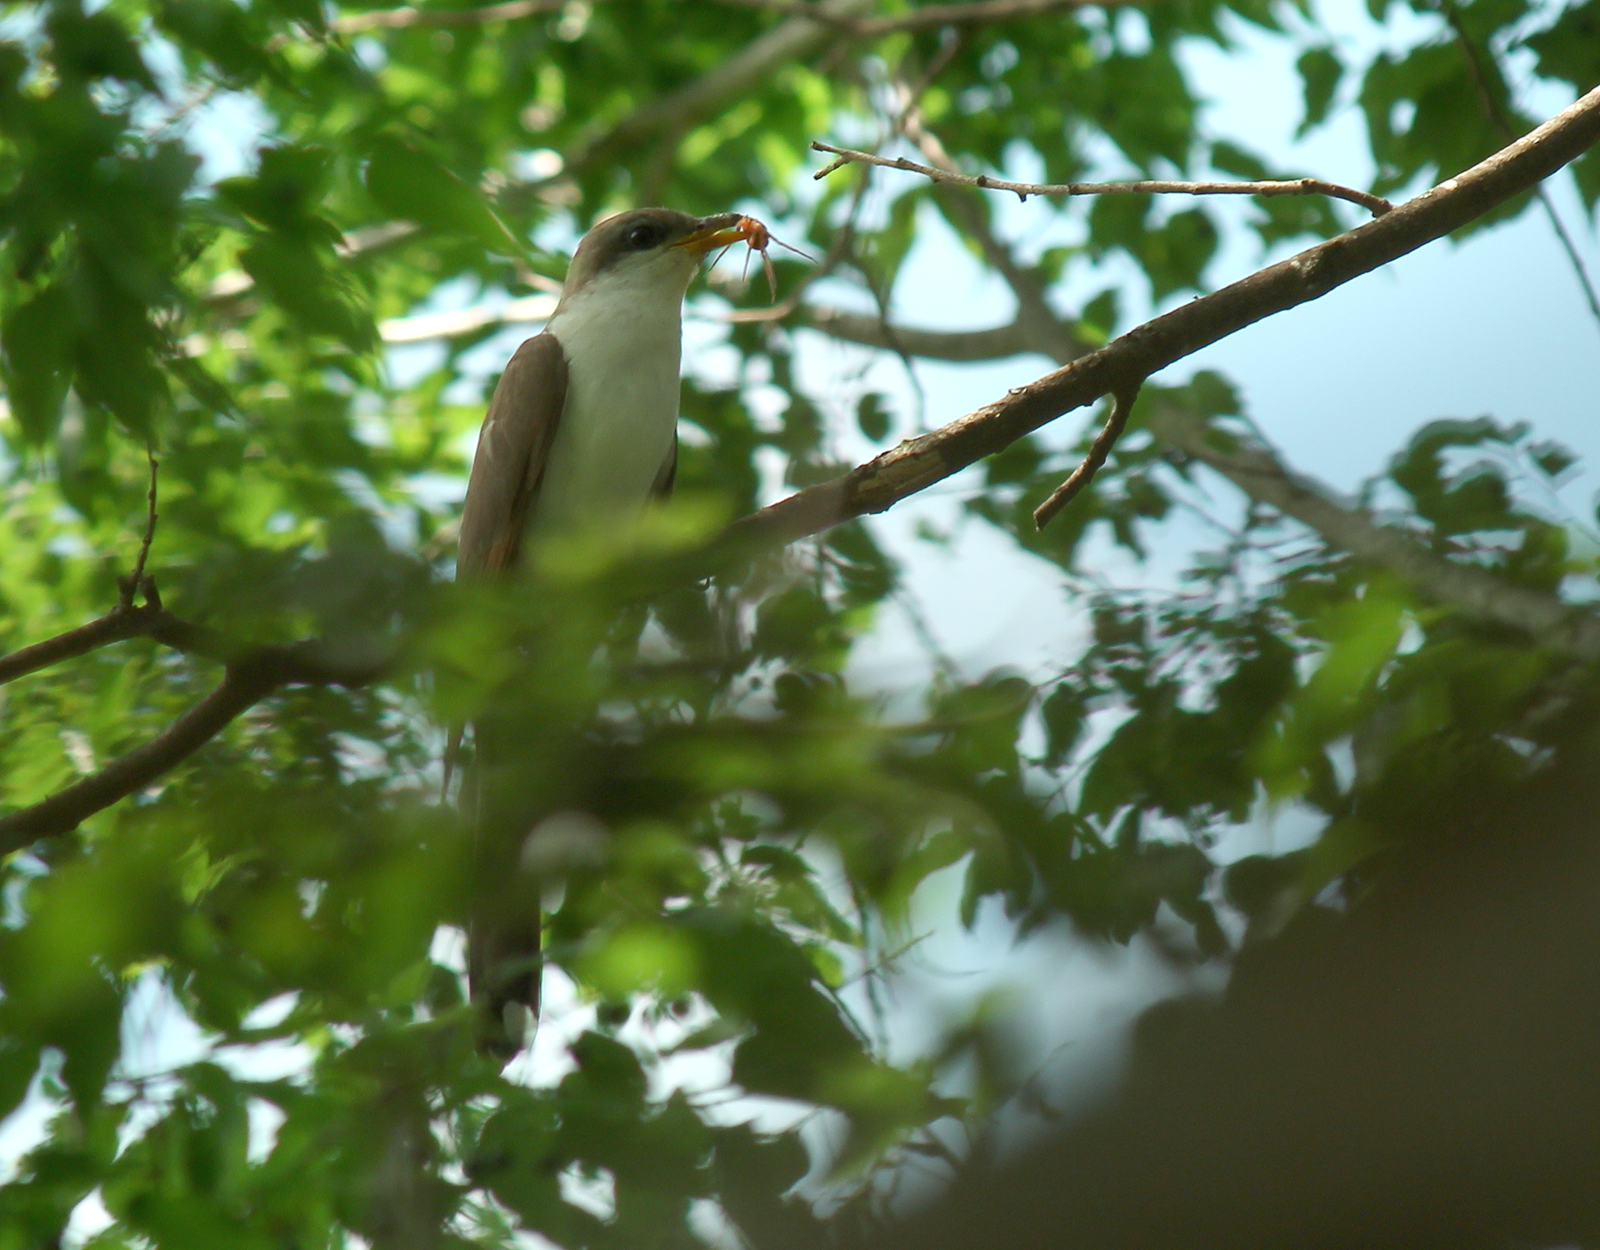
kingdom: Animalia
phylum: Chordata
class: Aves
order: Cuculiformes
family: Cuculidae
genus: Coccyzus
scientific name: Coccyzus americanus
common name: Yellow-billed cuckoo
